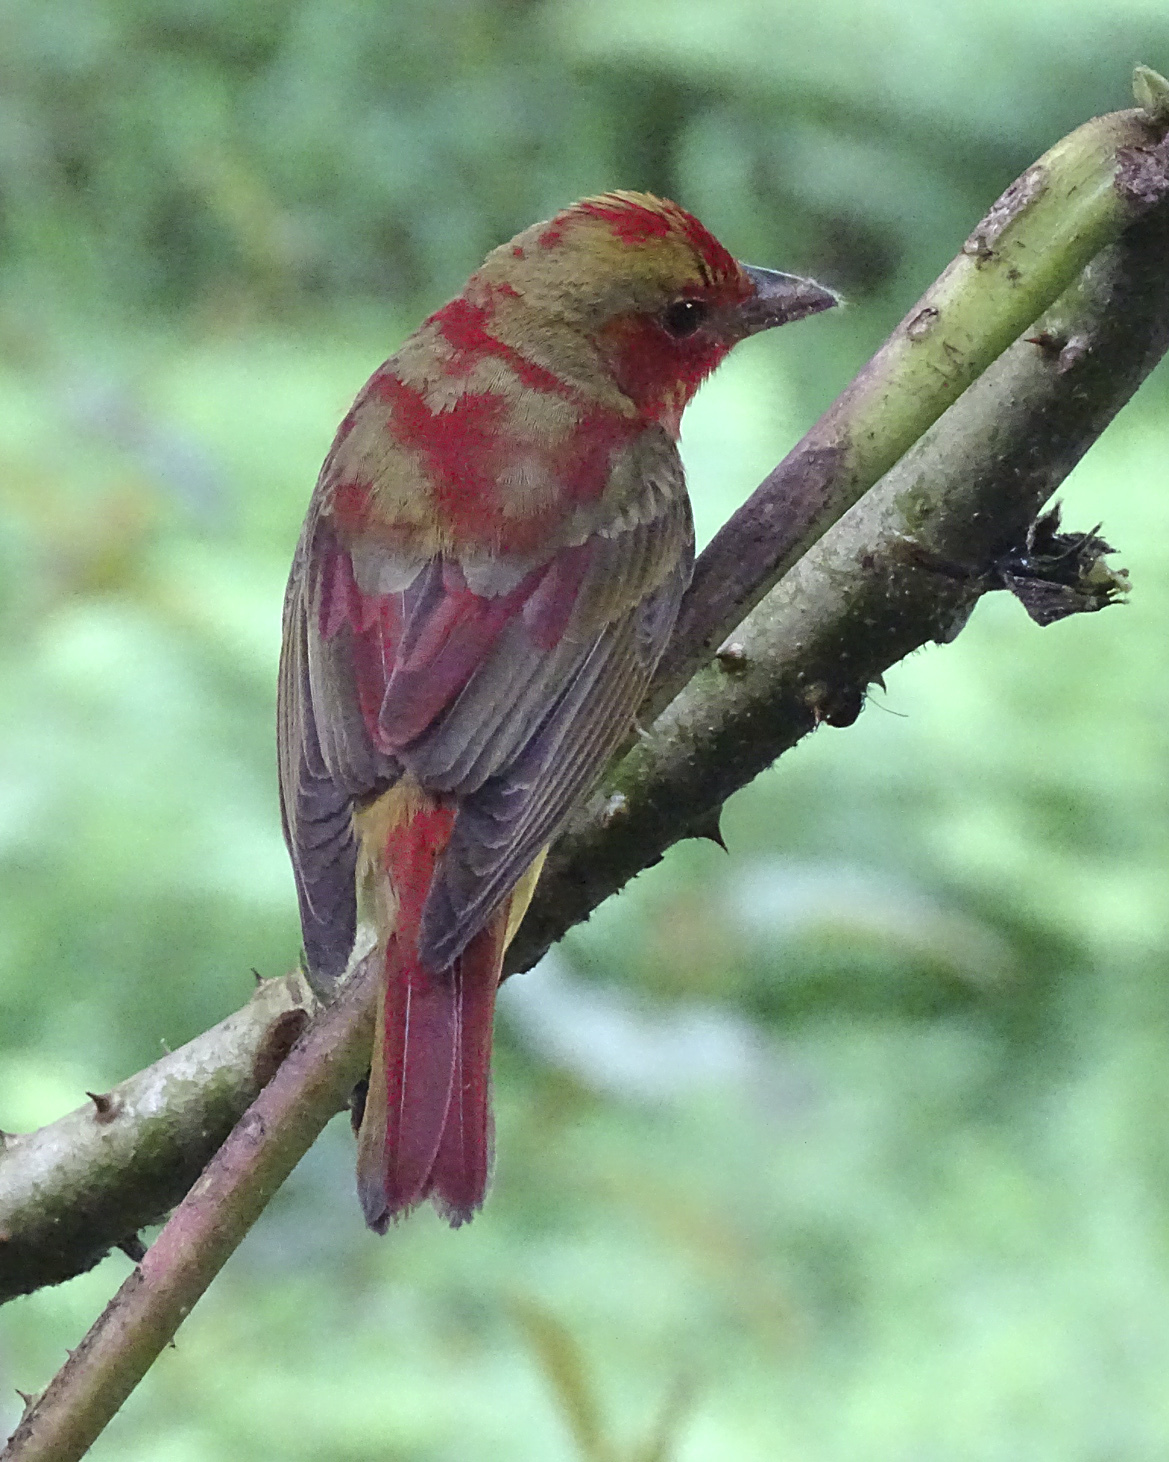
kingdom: Animalia
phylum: Chordata
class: Aves
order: Passeriformes
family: Cardinalidae
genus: Piranga
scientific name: Piranga rubra
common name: Summer tanager
